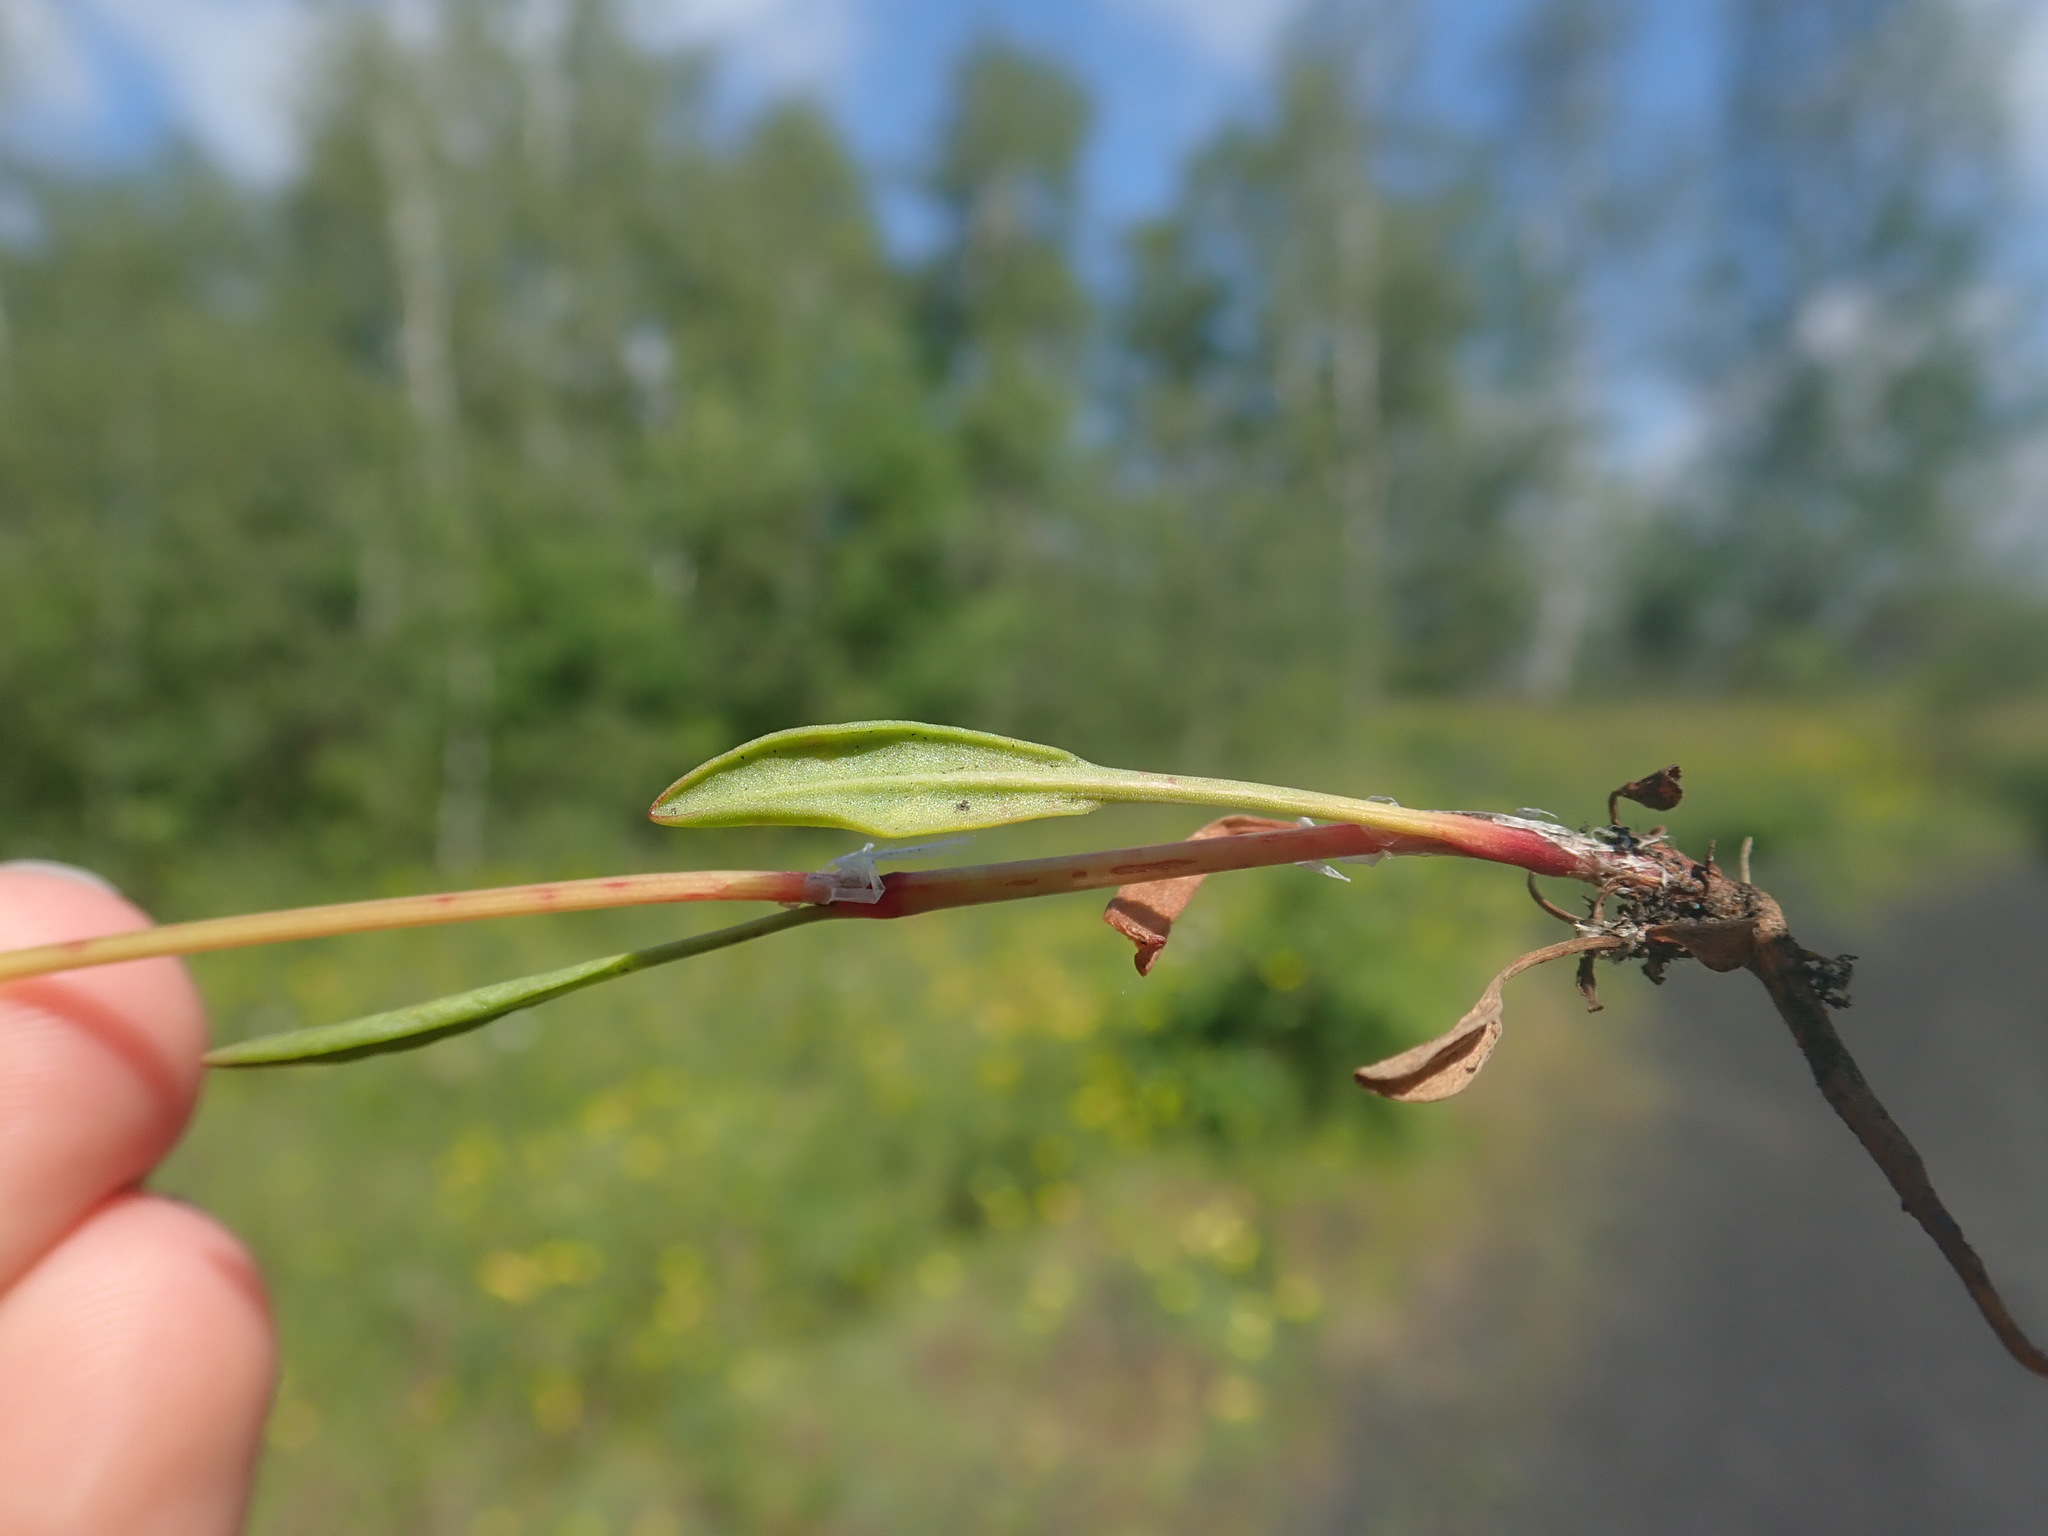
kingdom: Plantae
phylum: Tracheophyta
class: Magnoliopsida
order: Caryophyllales
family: Polygonaceae
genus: Rumex
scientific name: Rumex acetosella
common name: Common sheep sorrel
